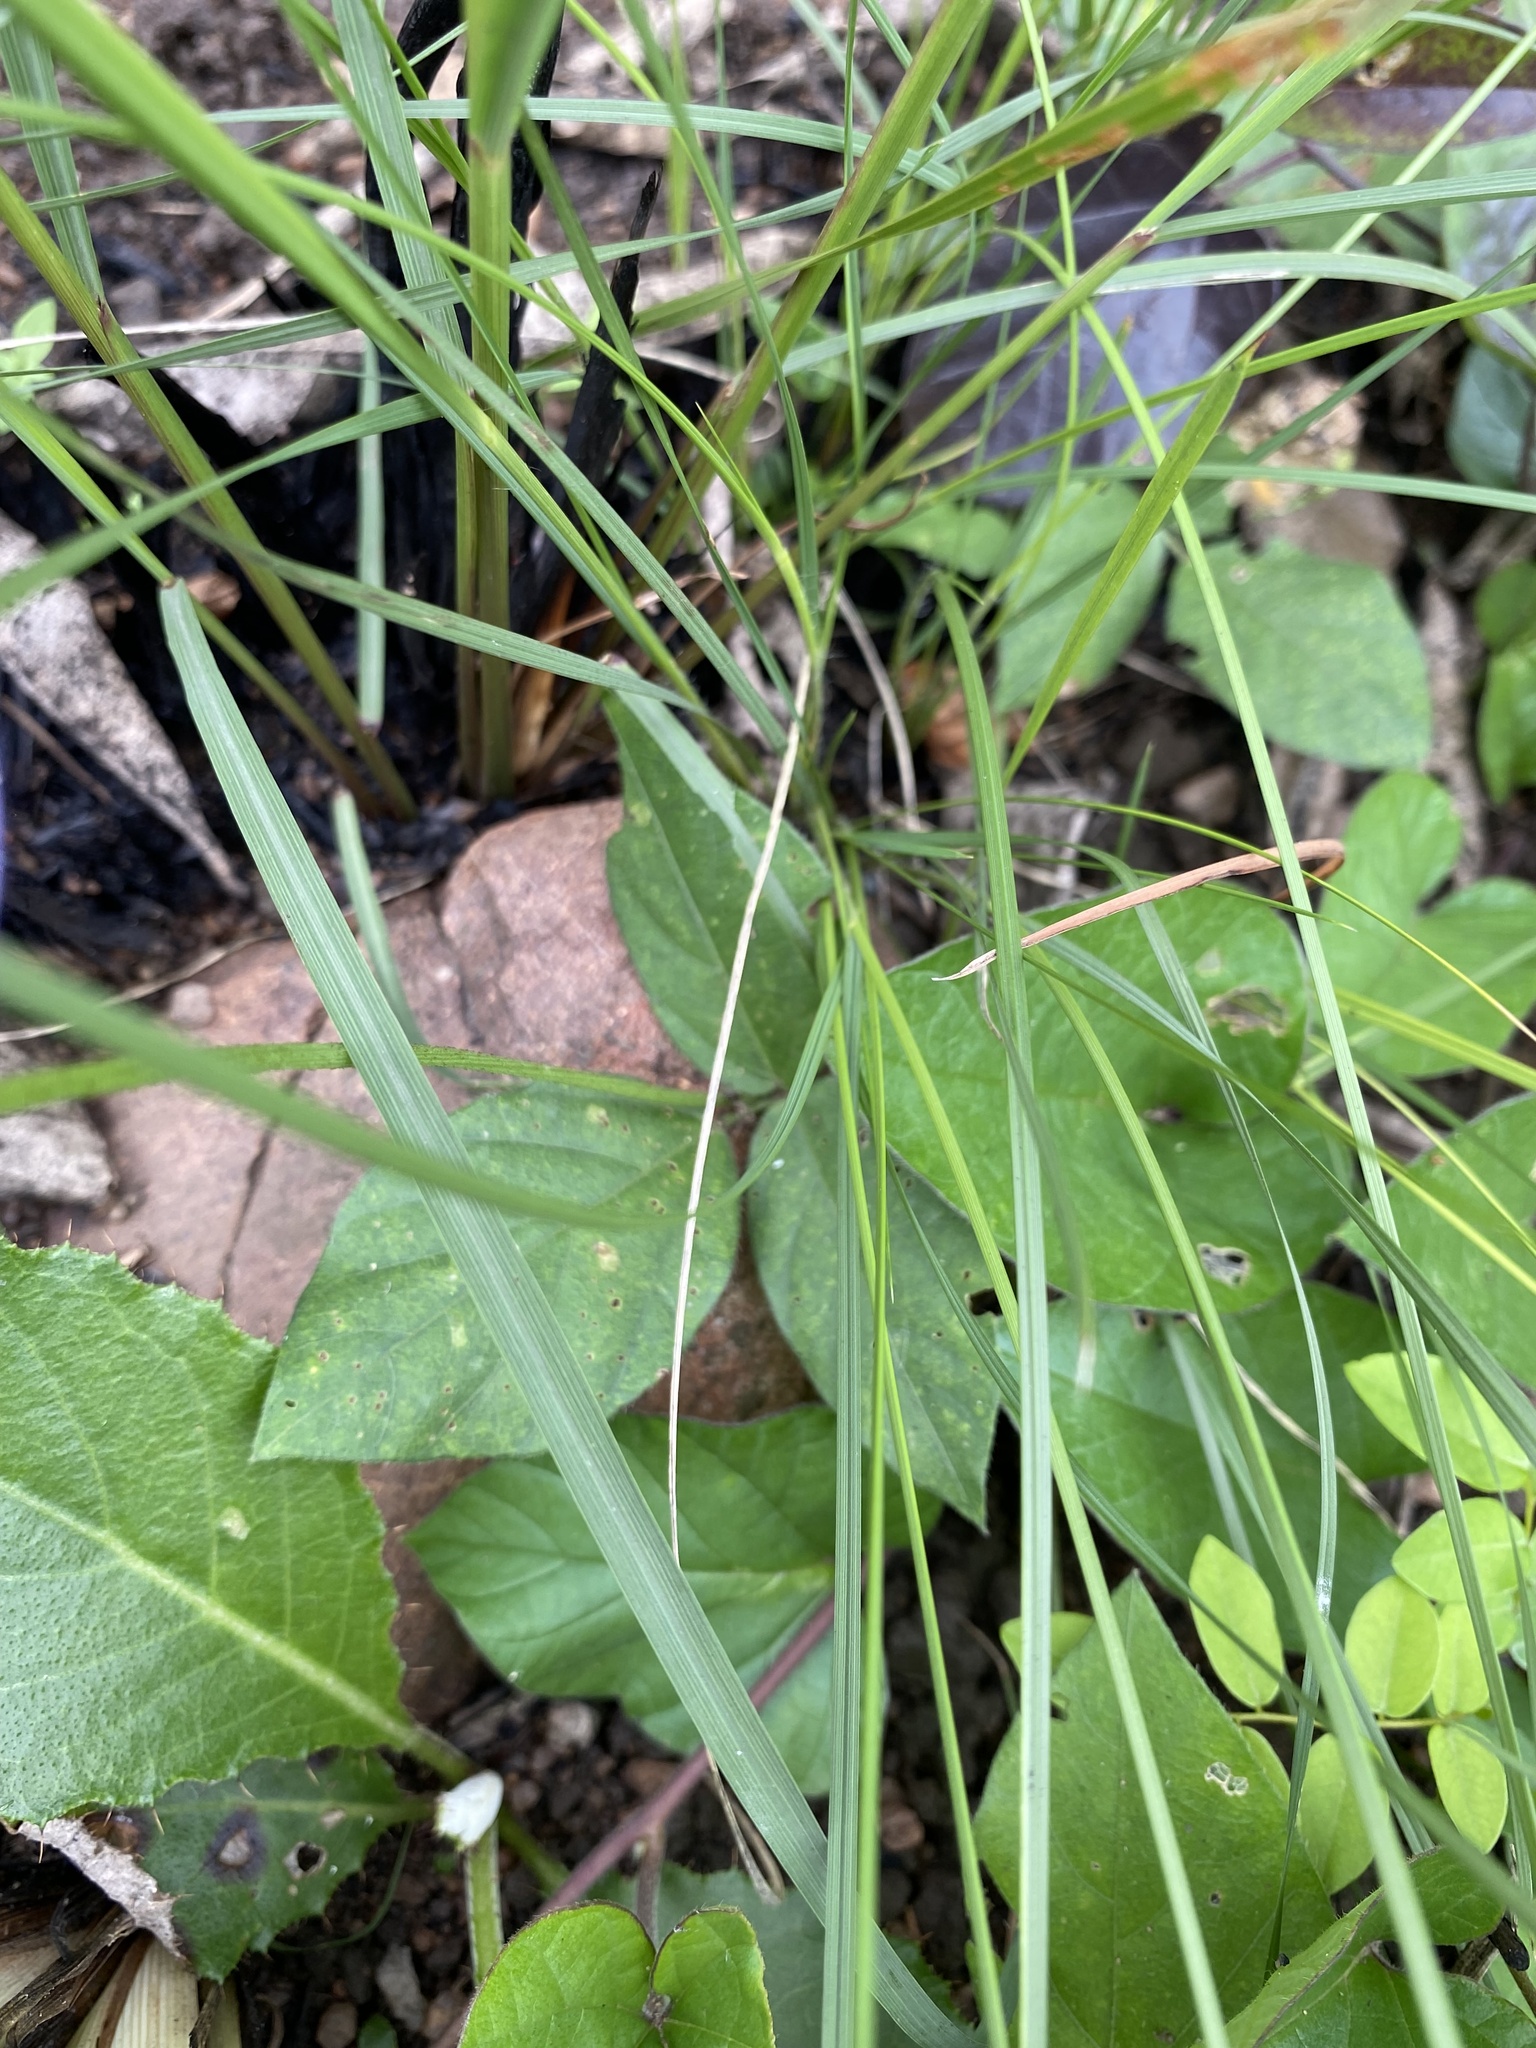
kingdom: Plantae
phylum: Tracheophyta
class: Magnoliopsida
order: Fabales
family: Fabaceae
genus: Vigna
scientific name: Vigna vexillata
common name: Zombi pea
